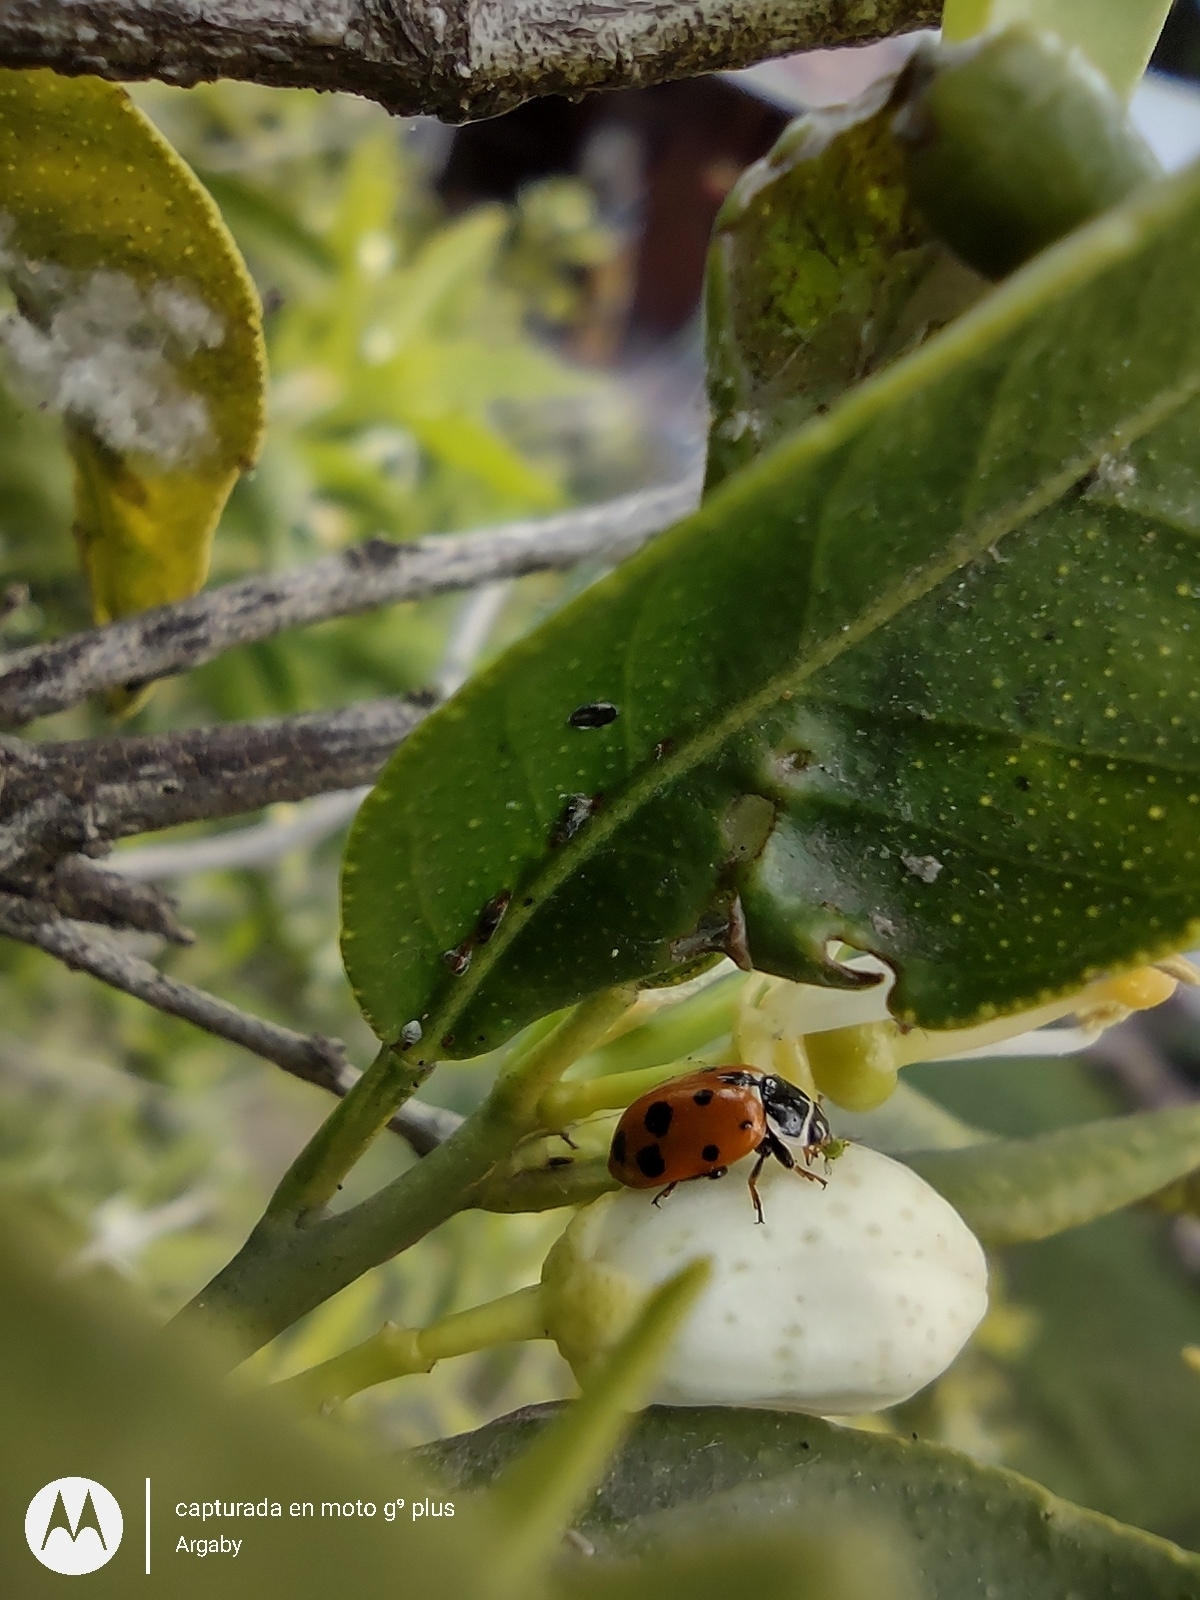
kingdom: Animalia
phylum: Arthropoda
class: Insecta
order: Coleoptera
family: Coccinellidae
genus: Hippodamia
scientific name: Hippodamia variegata
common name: Ladybird beetle
